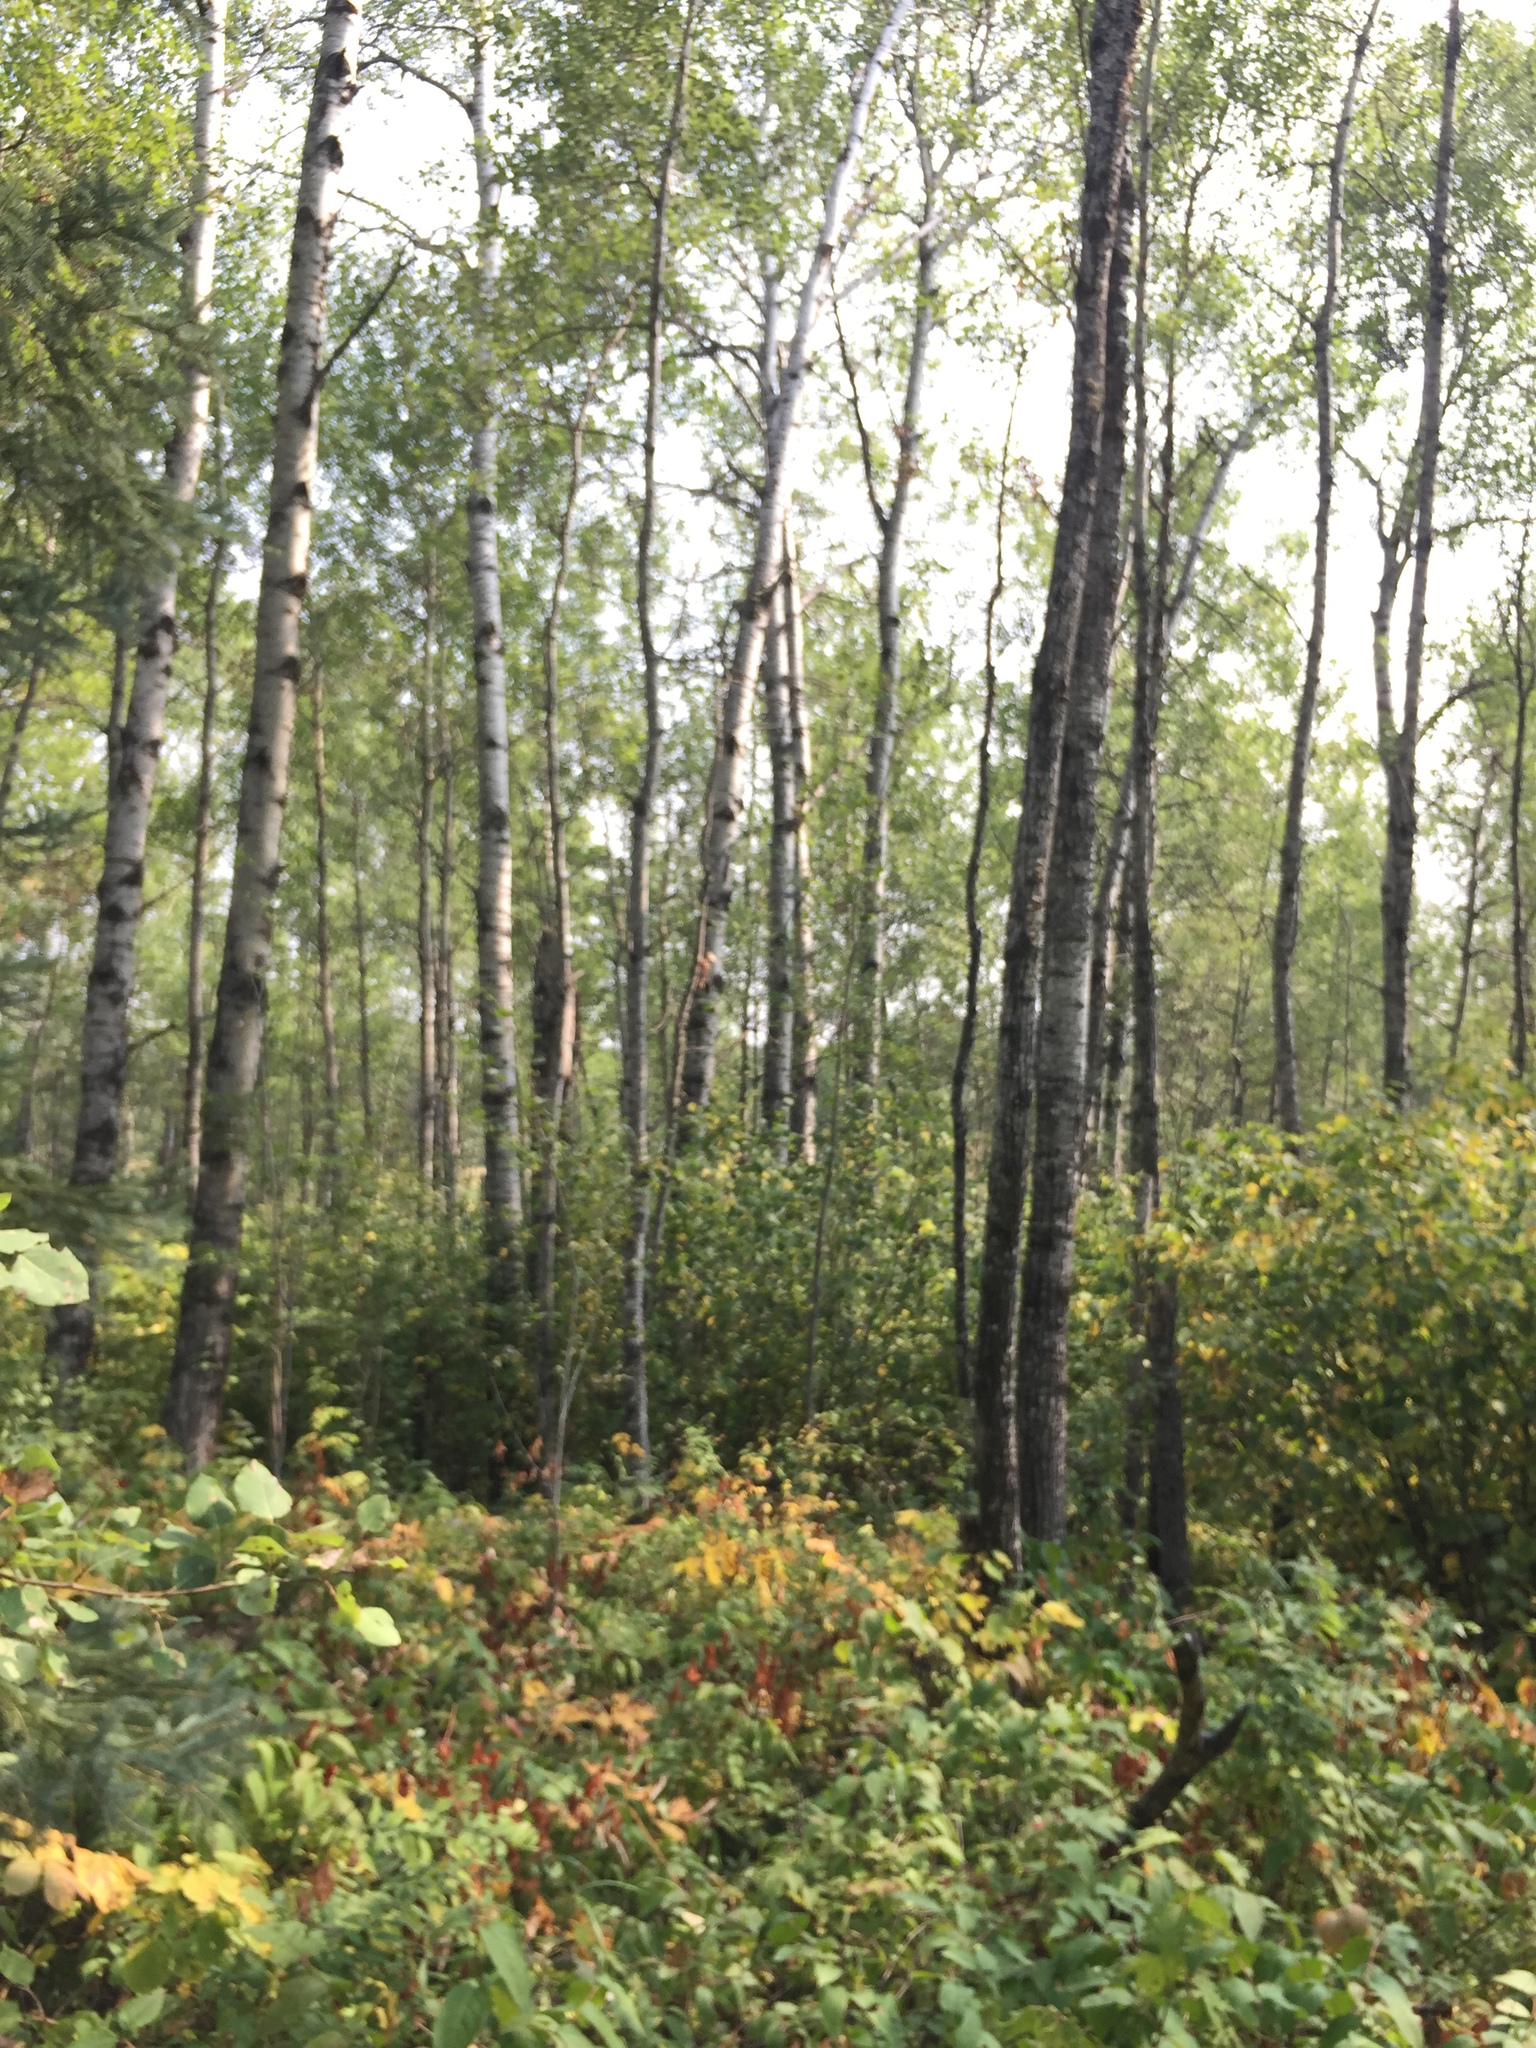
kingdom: Plantae
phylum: Tracheophyta
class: Magnoliopsida
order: Malpighiales
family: Salicaceae
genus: Populus
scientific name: Populus tremuloides
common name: Quaking aspen
